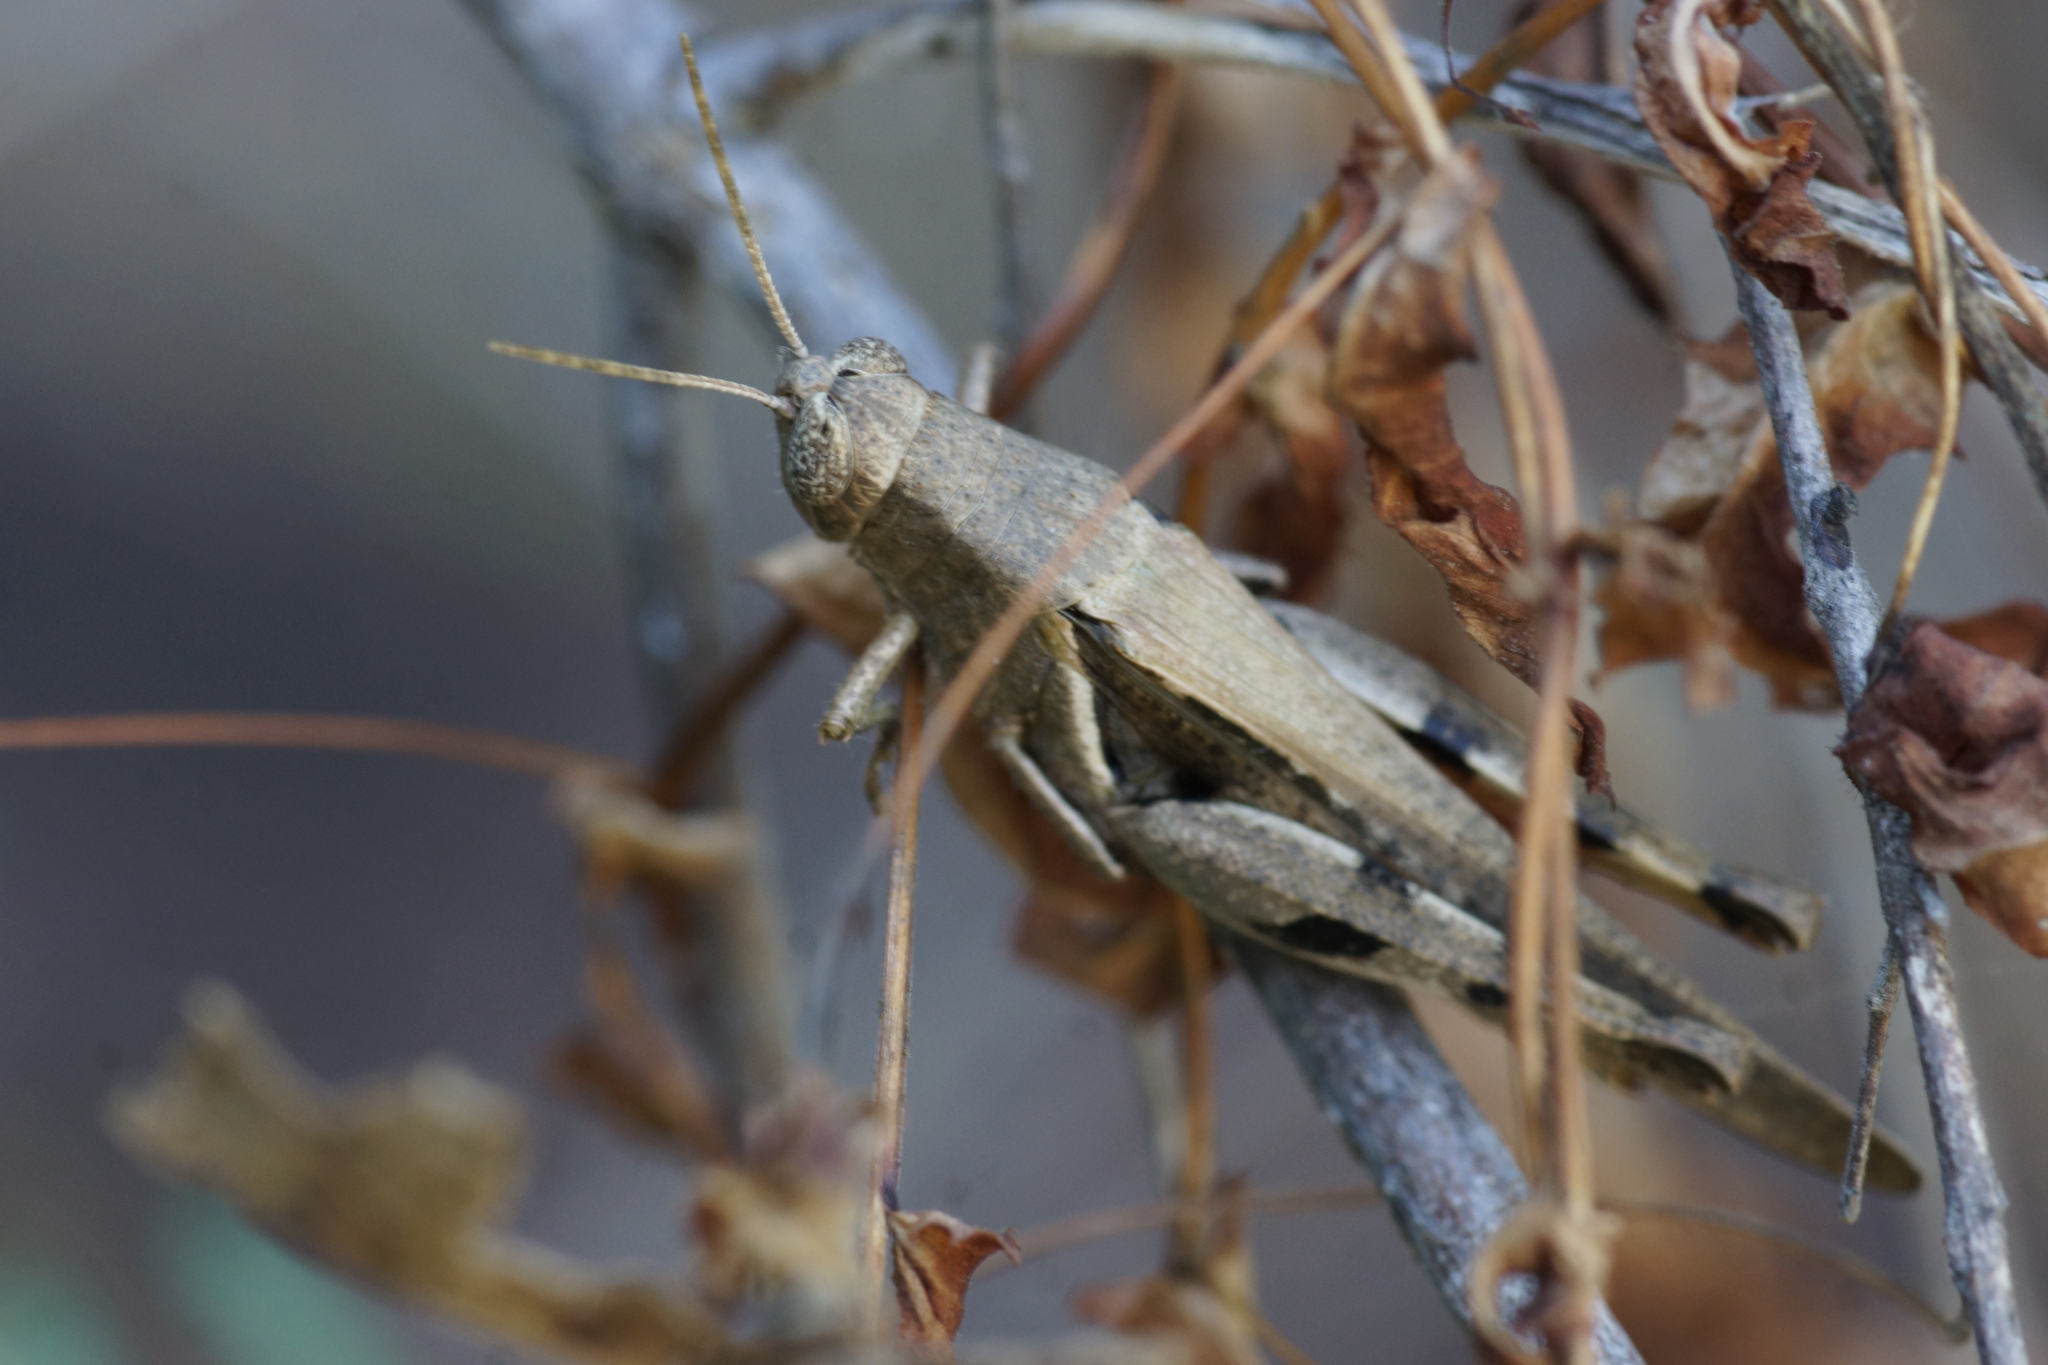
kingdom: Animalia
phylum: Arthropoda
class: Insecta
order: Orthoptera
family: Acrididae
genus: Stenocatantops
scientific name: Stenocatantops angustifrons
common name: Common tropical sharptail
